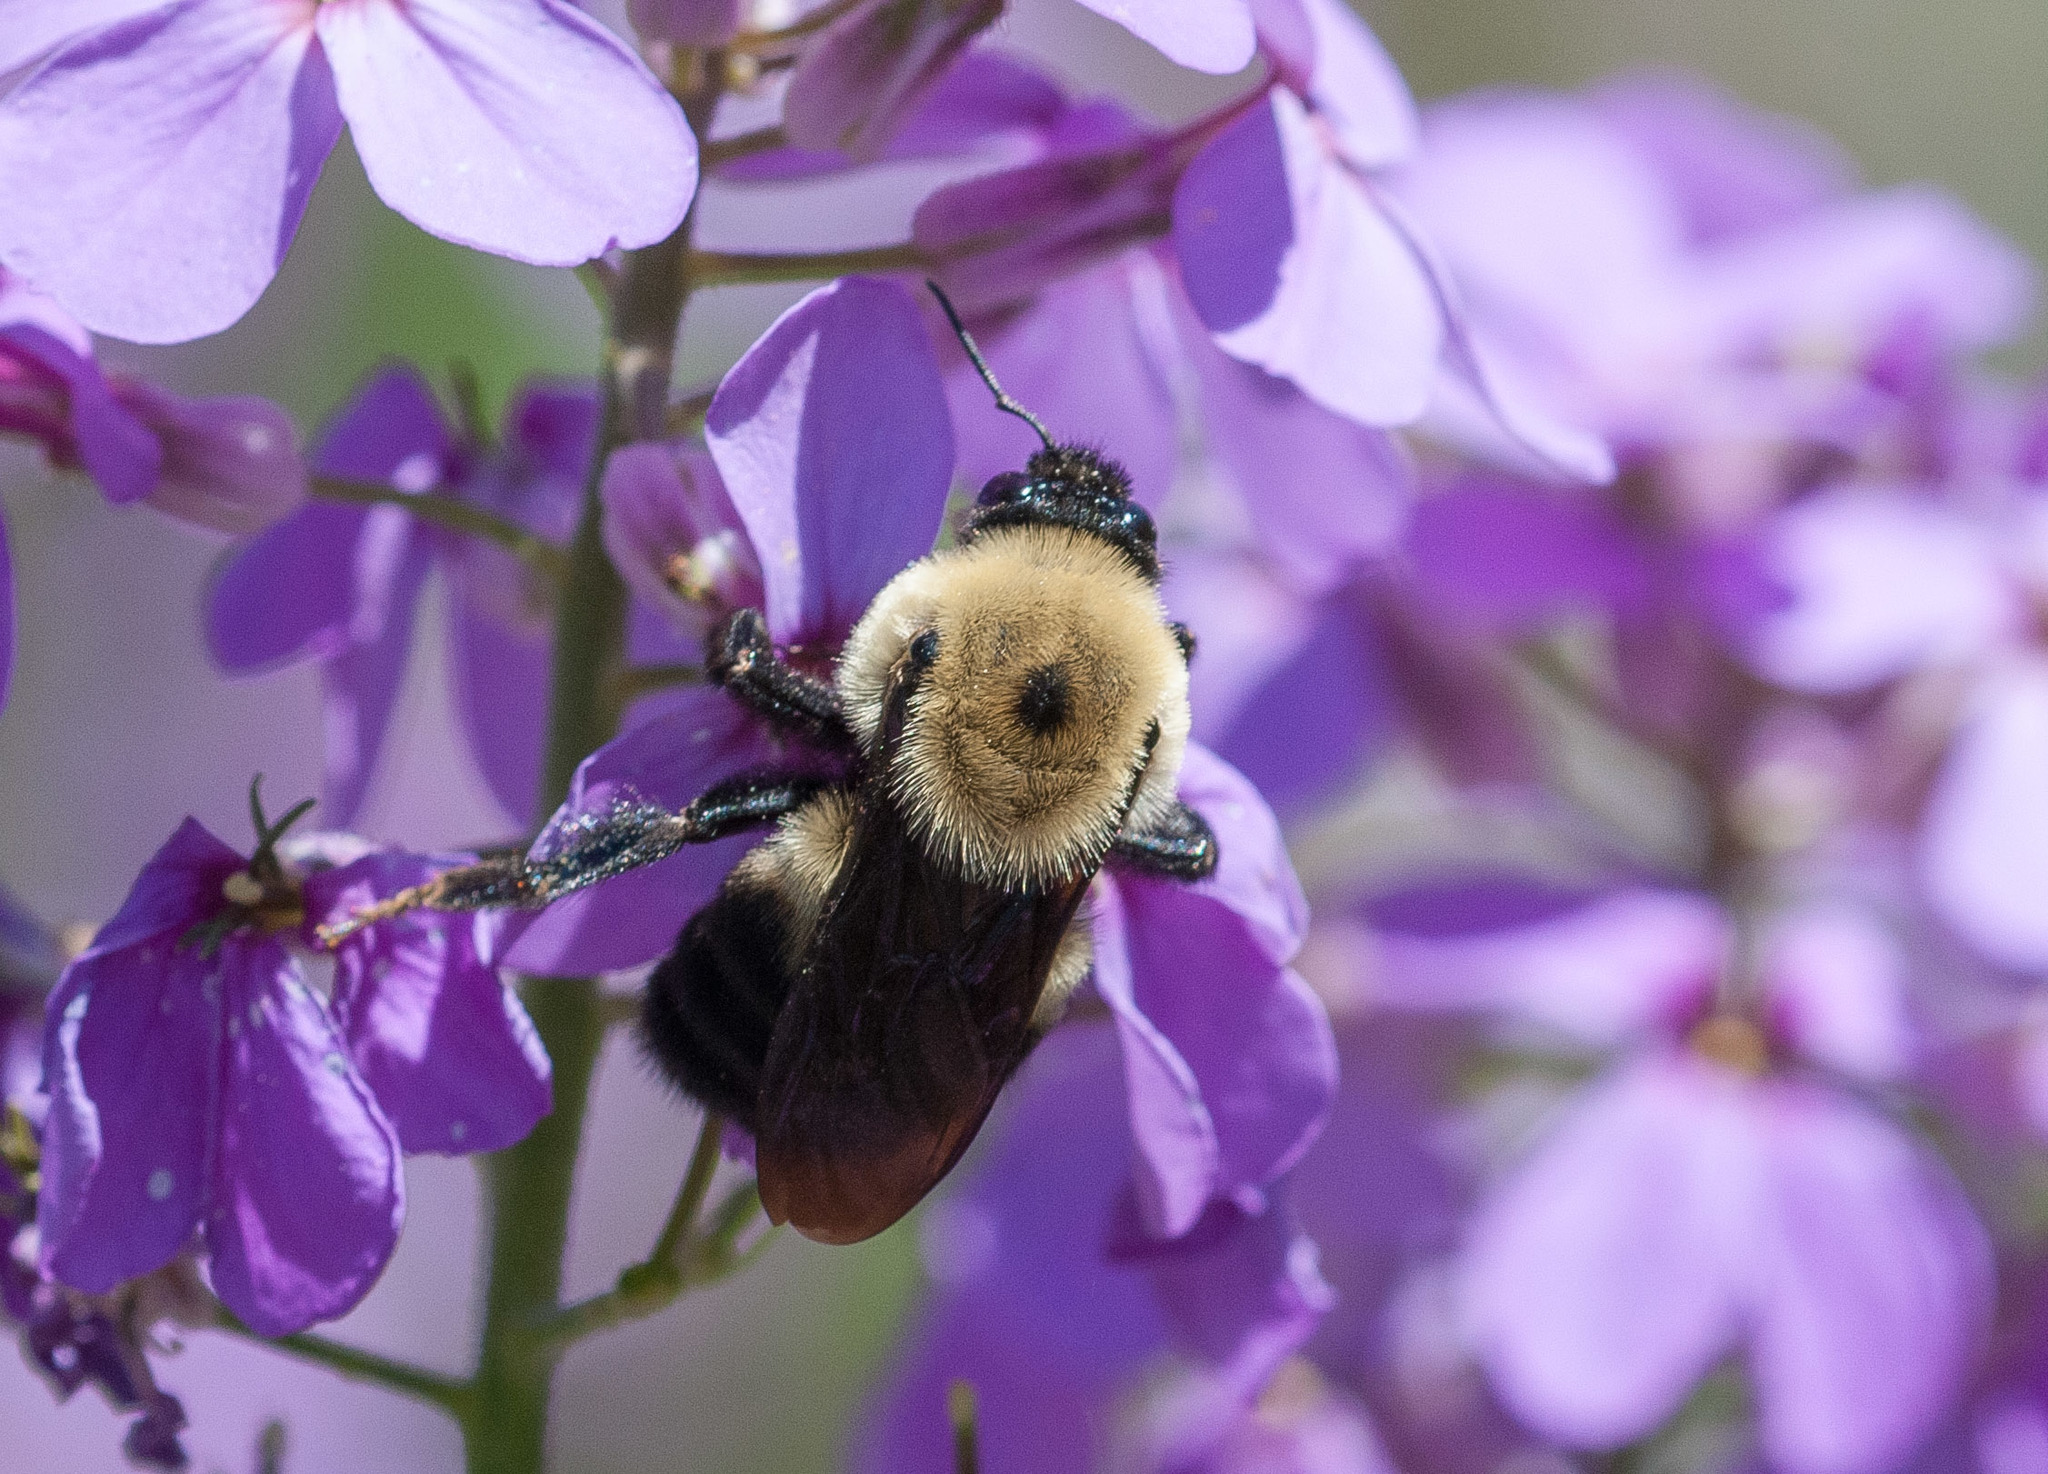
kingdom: Animalia
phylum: Arthropoda
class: Insecta
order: Hymenoptera
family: Apidae
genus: Bombus
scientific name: Bombus griseocollis
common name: Brown-belted bumble bee
